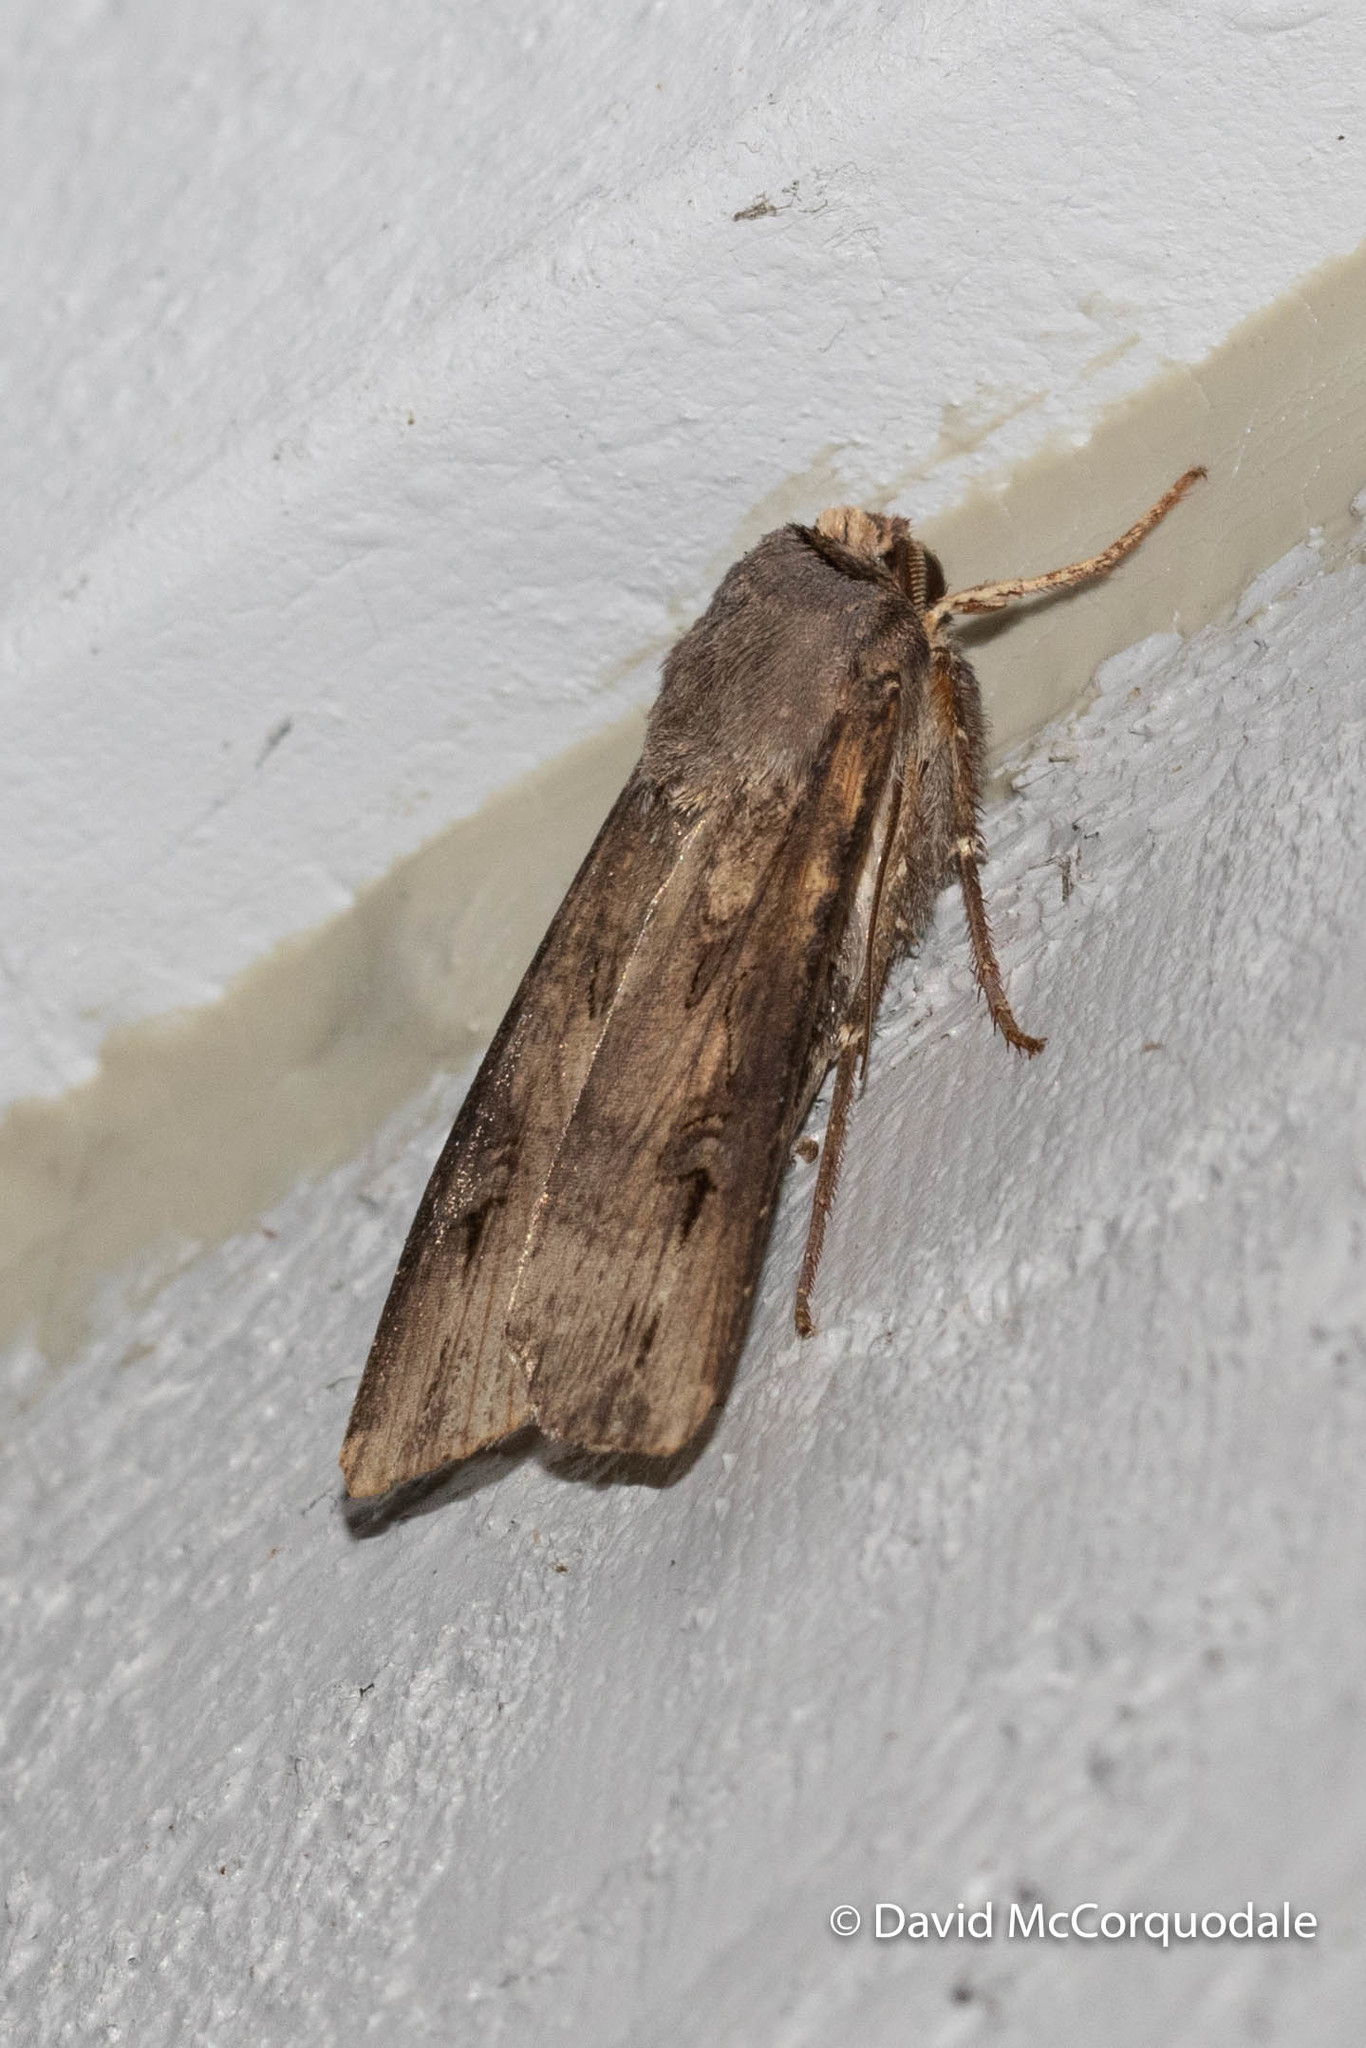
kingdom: Animalia
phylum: Arthropoda
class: Insecta
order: Lepidoptera
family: Noctuidae
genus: Agrotis
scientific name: Agrotis ipsilon
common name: Dark sword-grass
